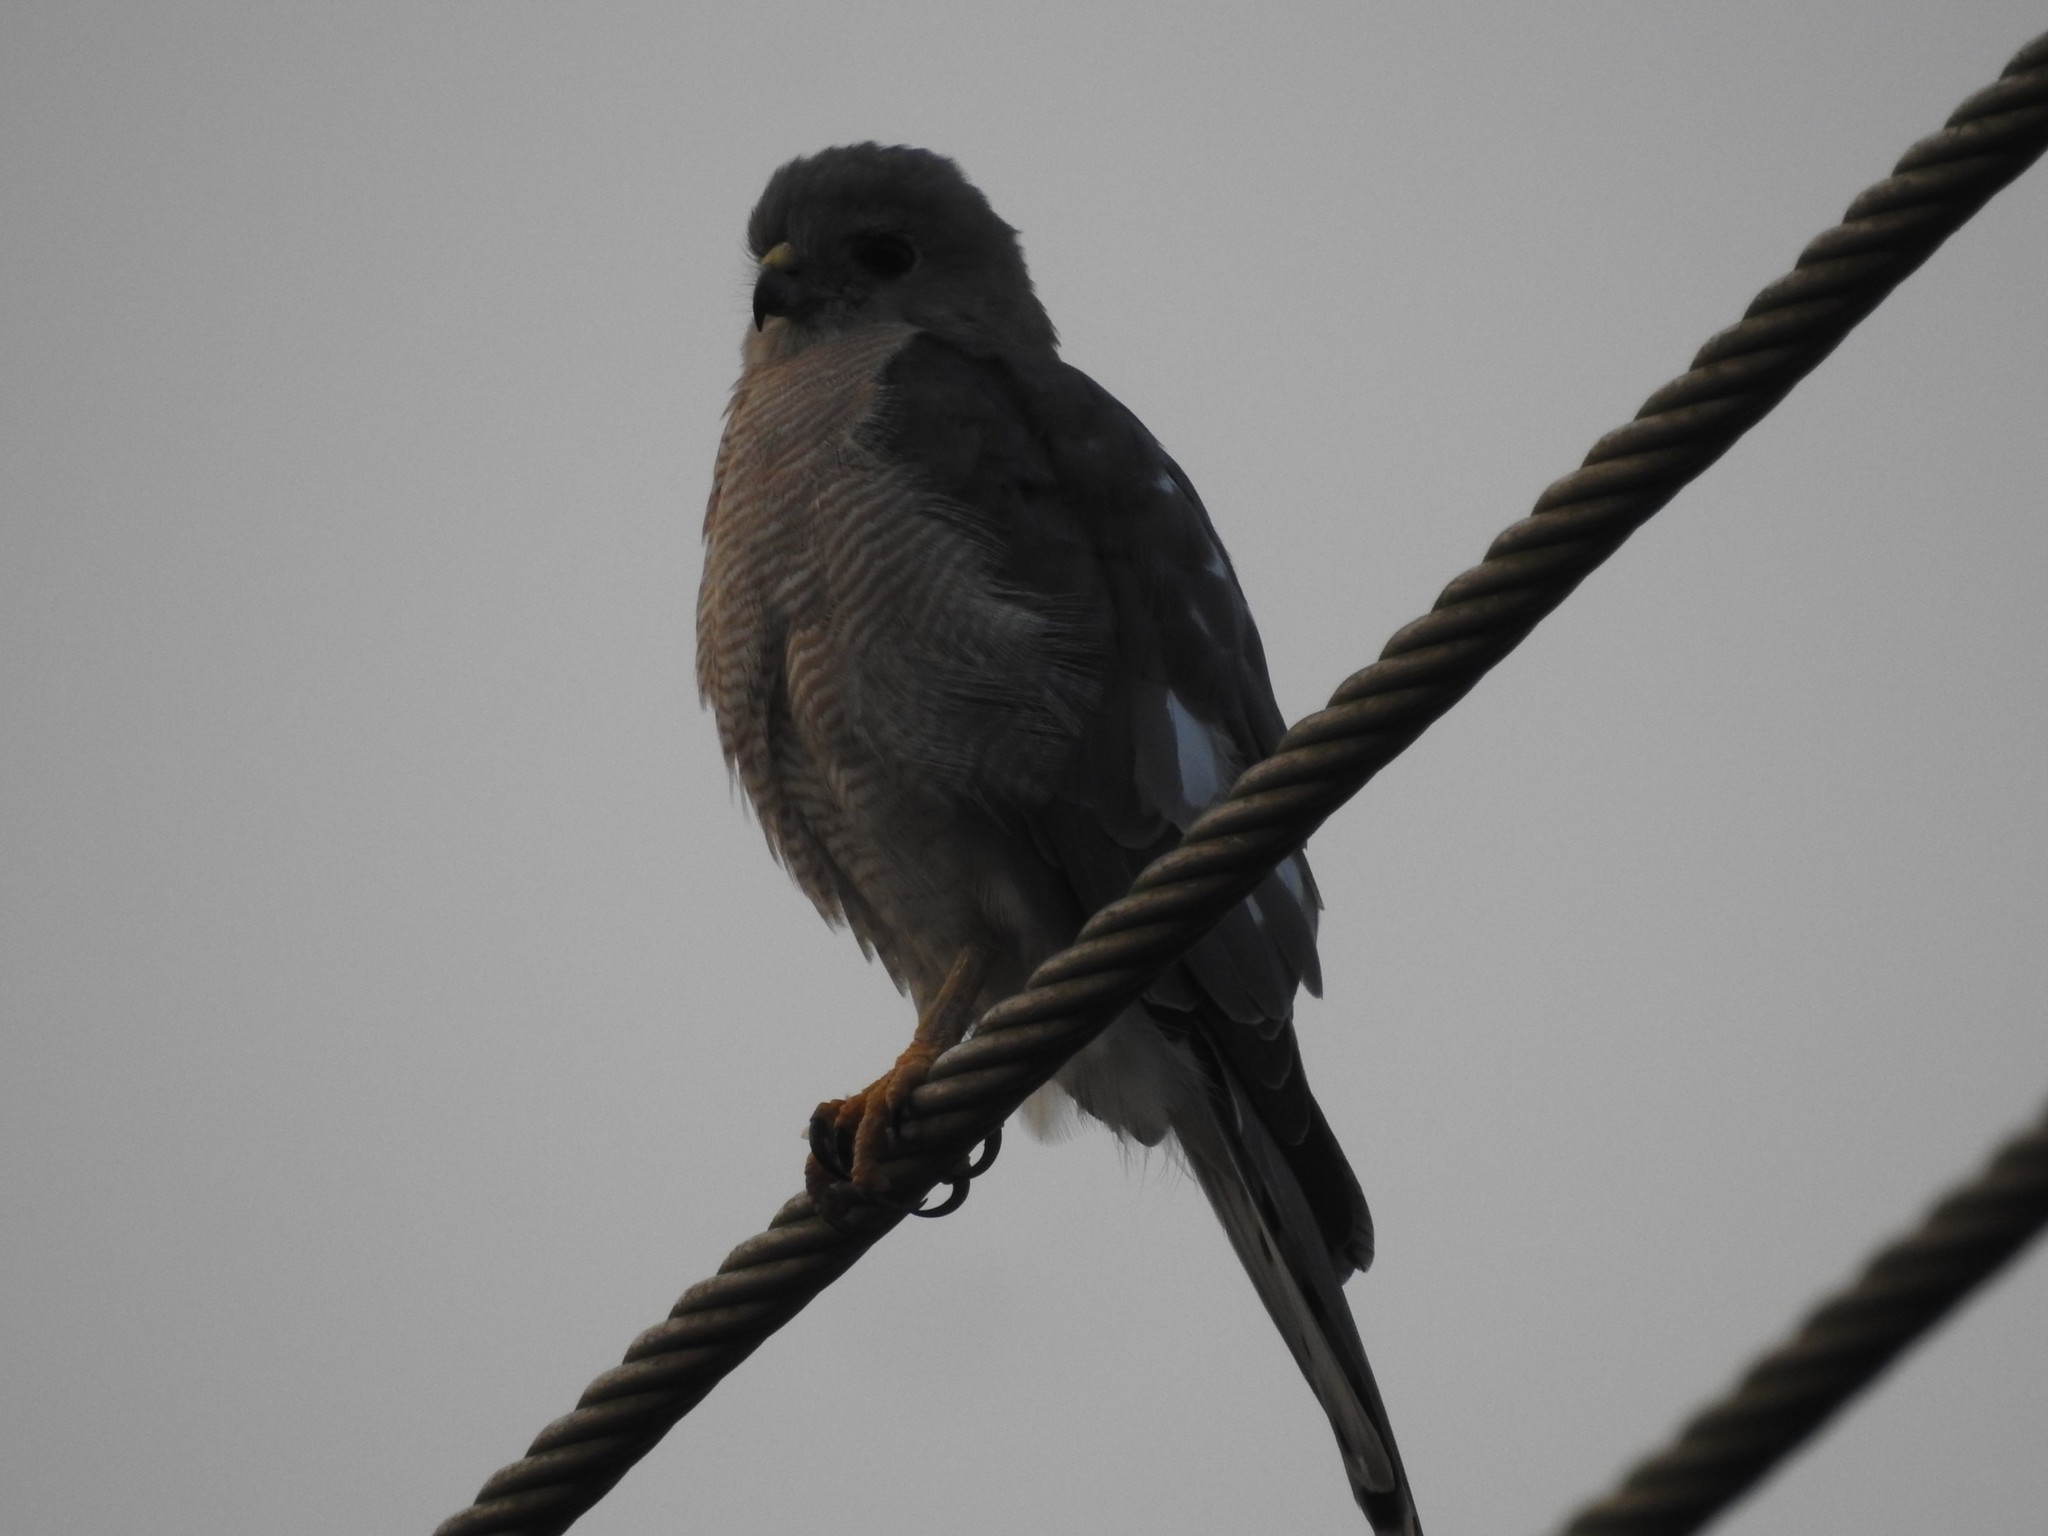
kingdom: Animalia
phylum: Chordata
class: Aves
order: Accipitriformes
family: Accipitridae
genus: Accipiter
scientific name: Accipiter badius
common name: Shikra
